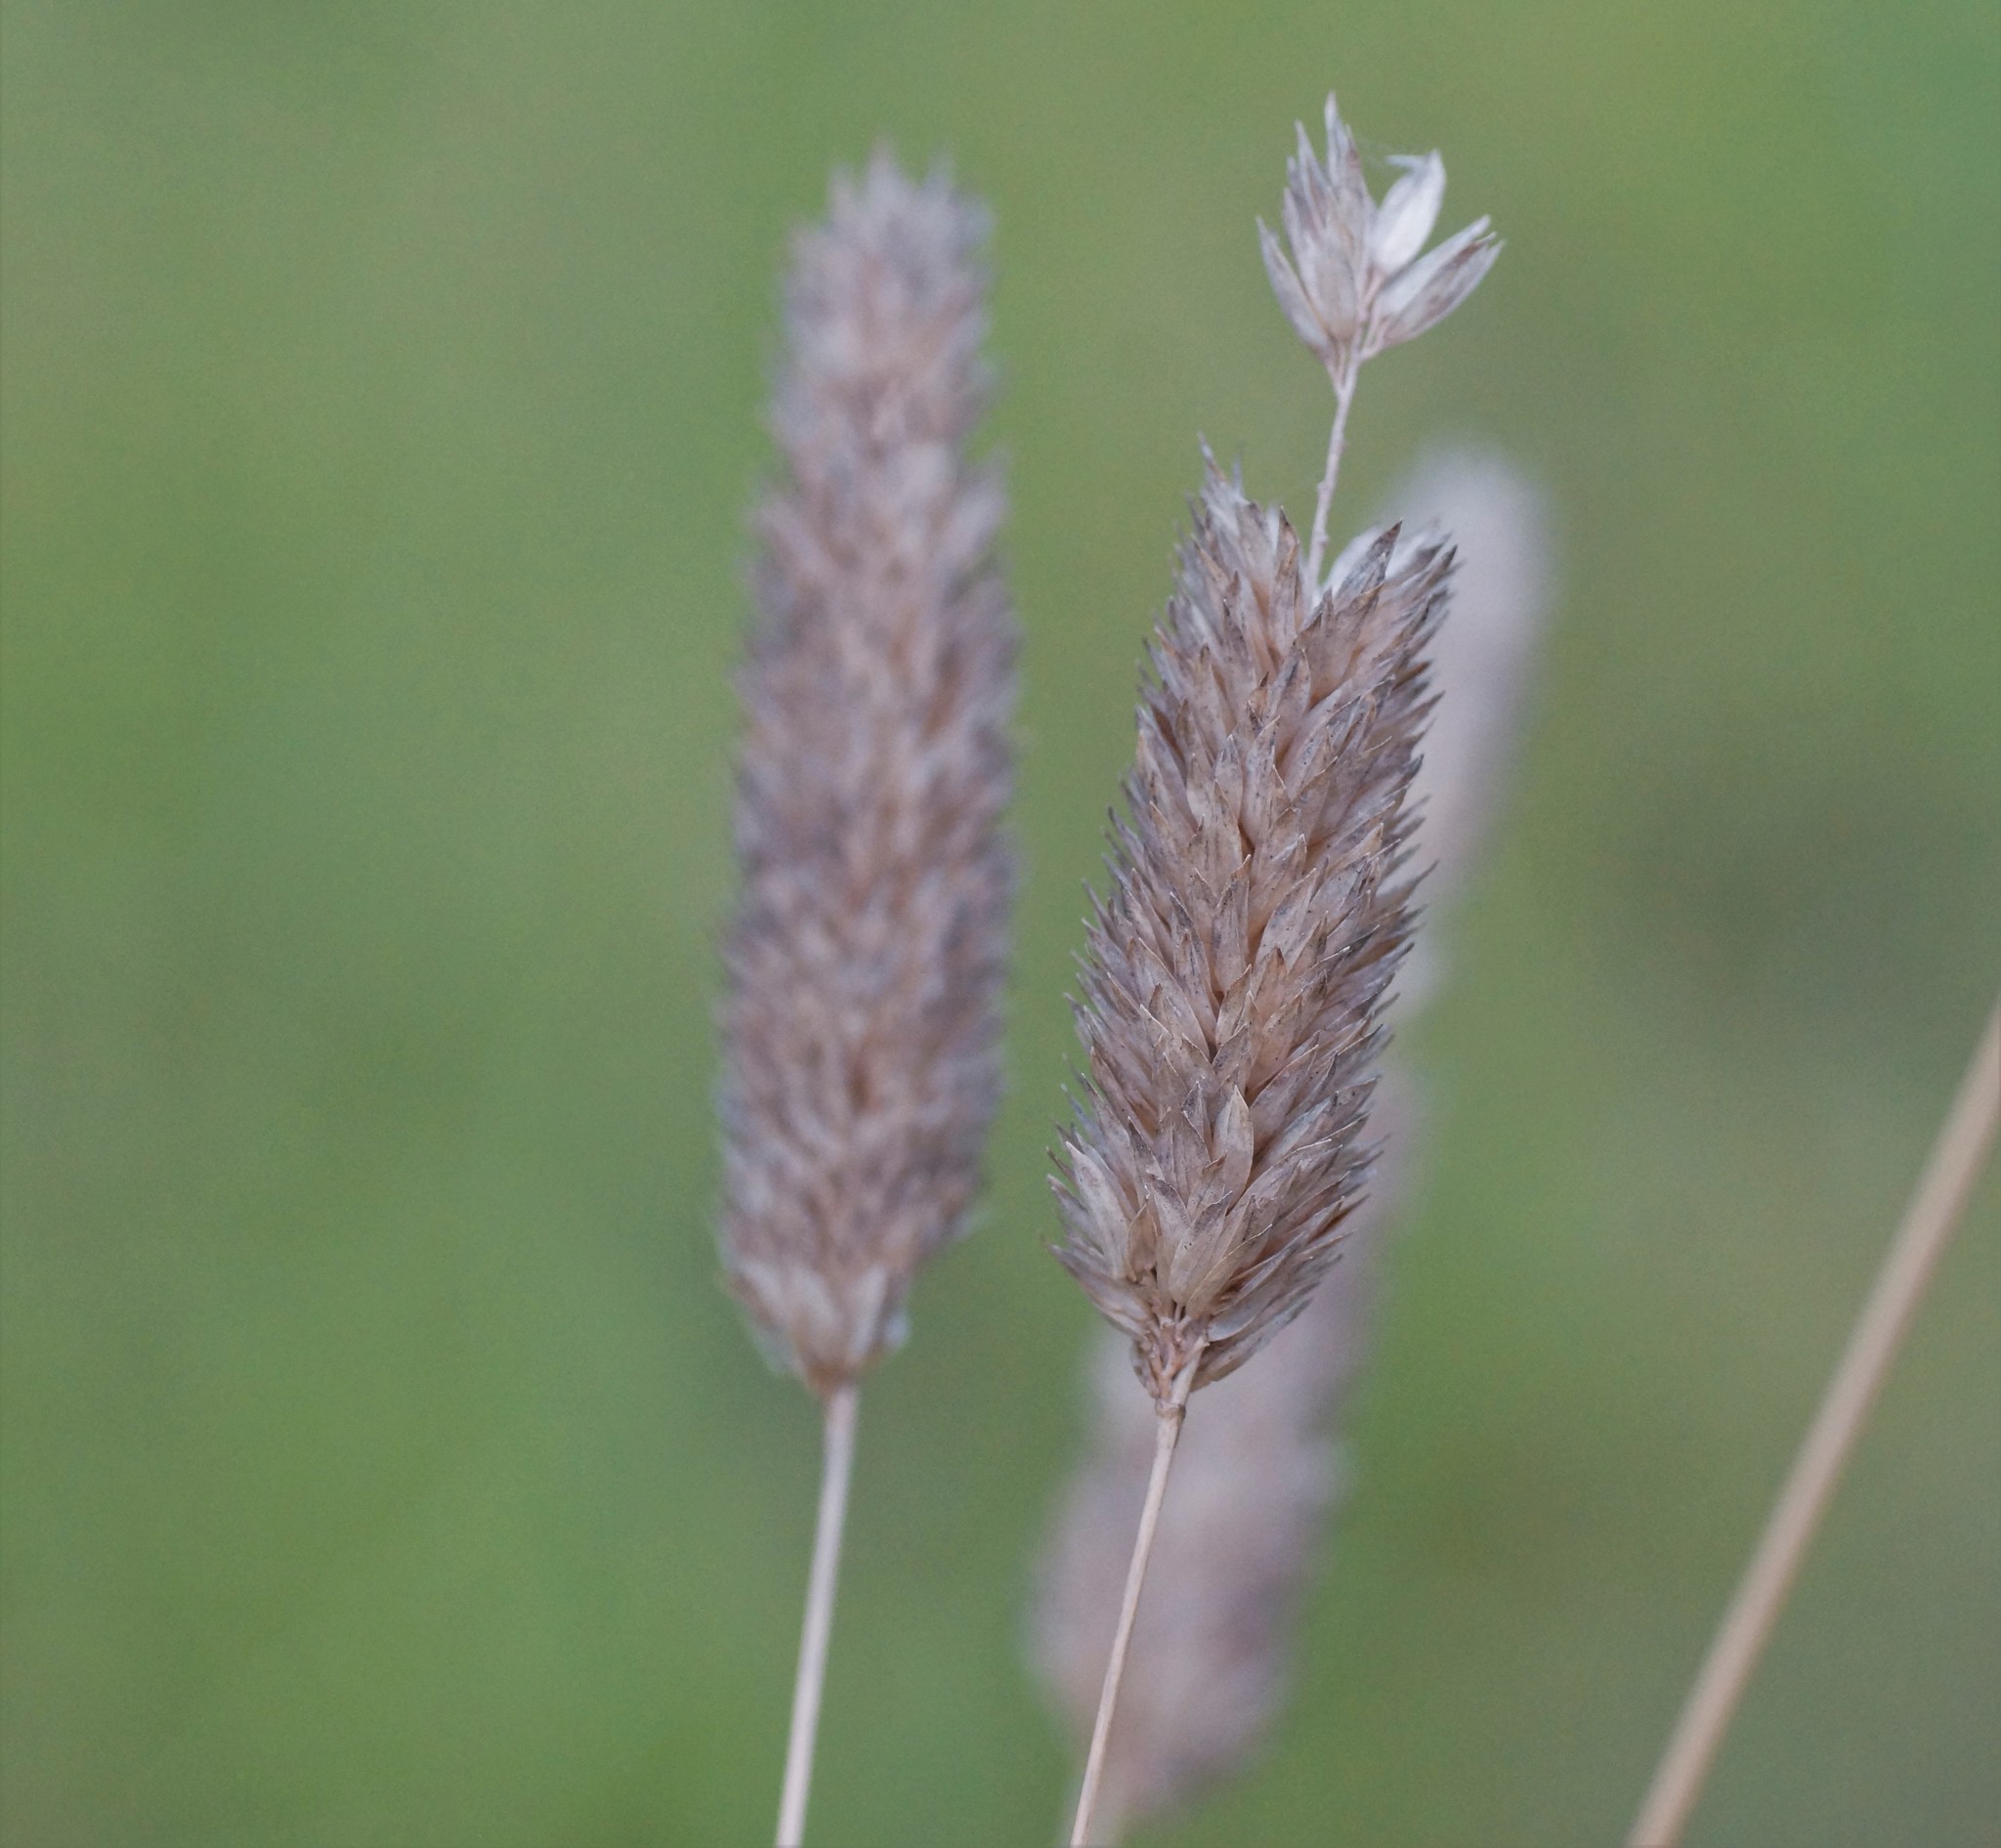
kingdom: Plantae
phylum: Tracheophyta
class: Liliopsida
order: Poales
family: Poaceae
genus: Dactylis
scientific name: Dactylis glomerata
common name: Orchardgrass
